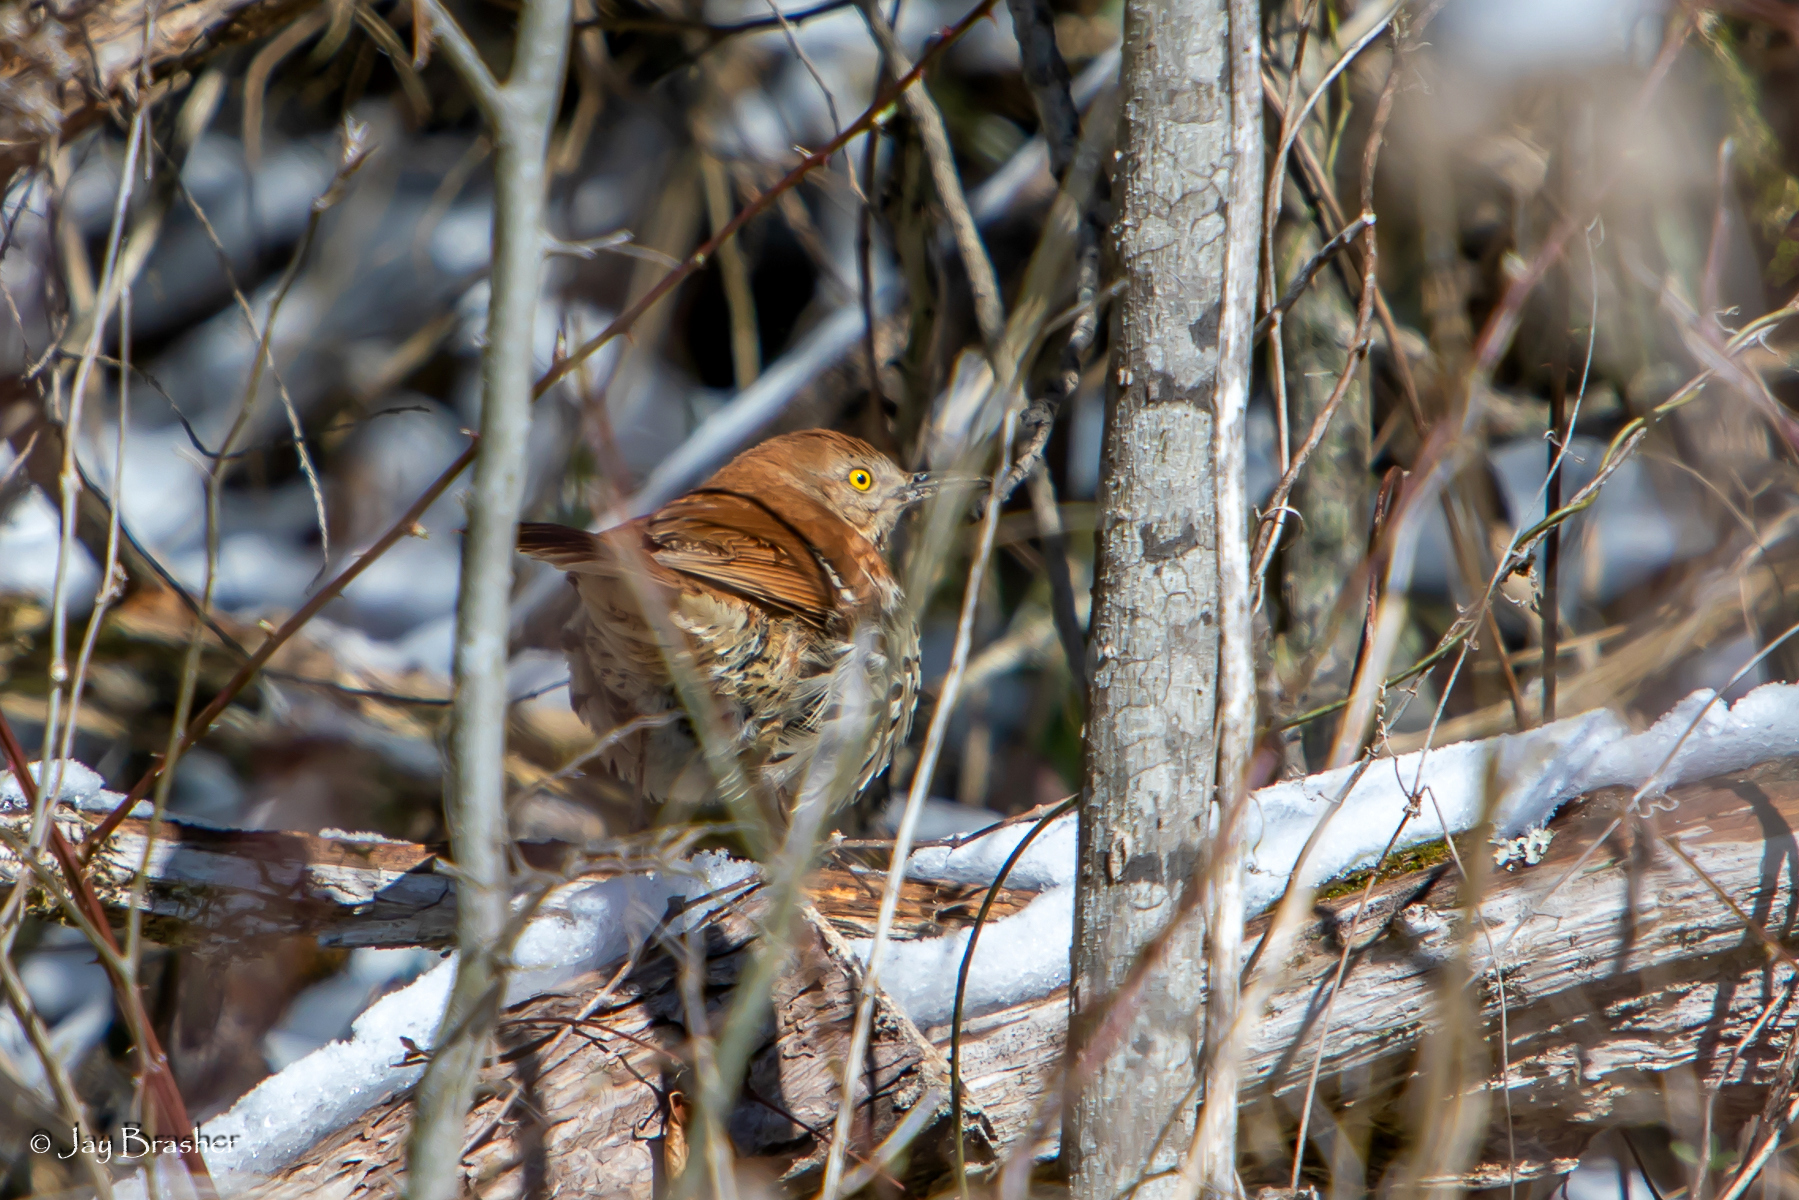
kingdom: Animalia
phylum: Chordata
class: Aves
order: Passeriformes
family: Mimidae
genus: Toxostoma
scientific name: Toxostoma rufum
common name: Brown thrasher
